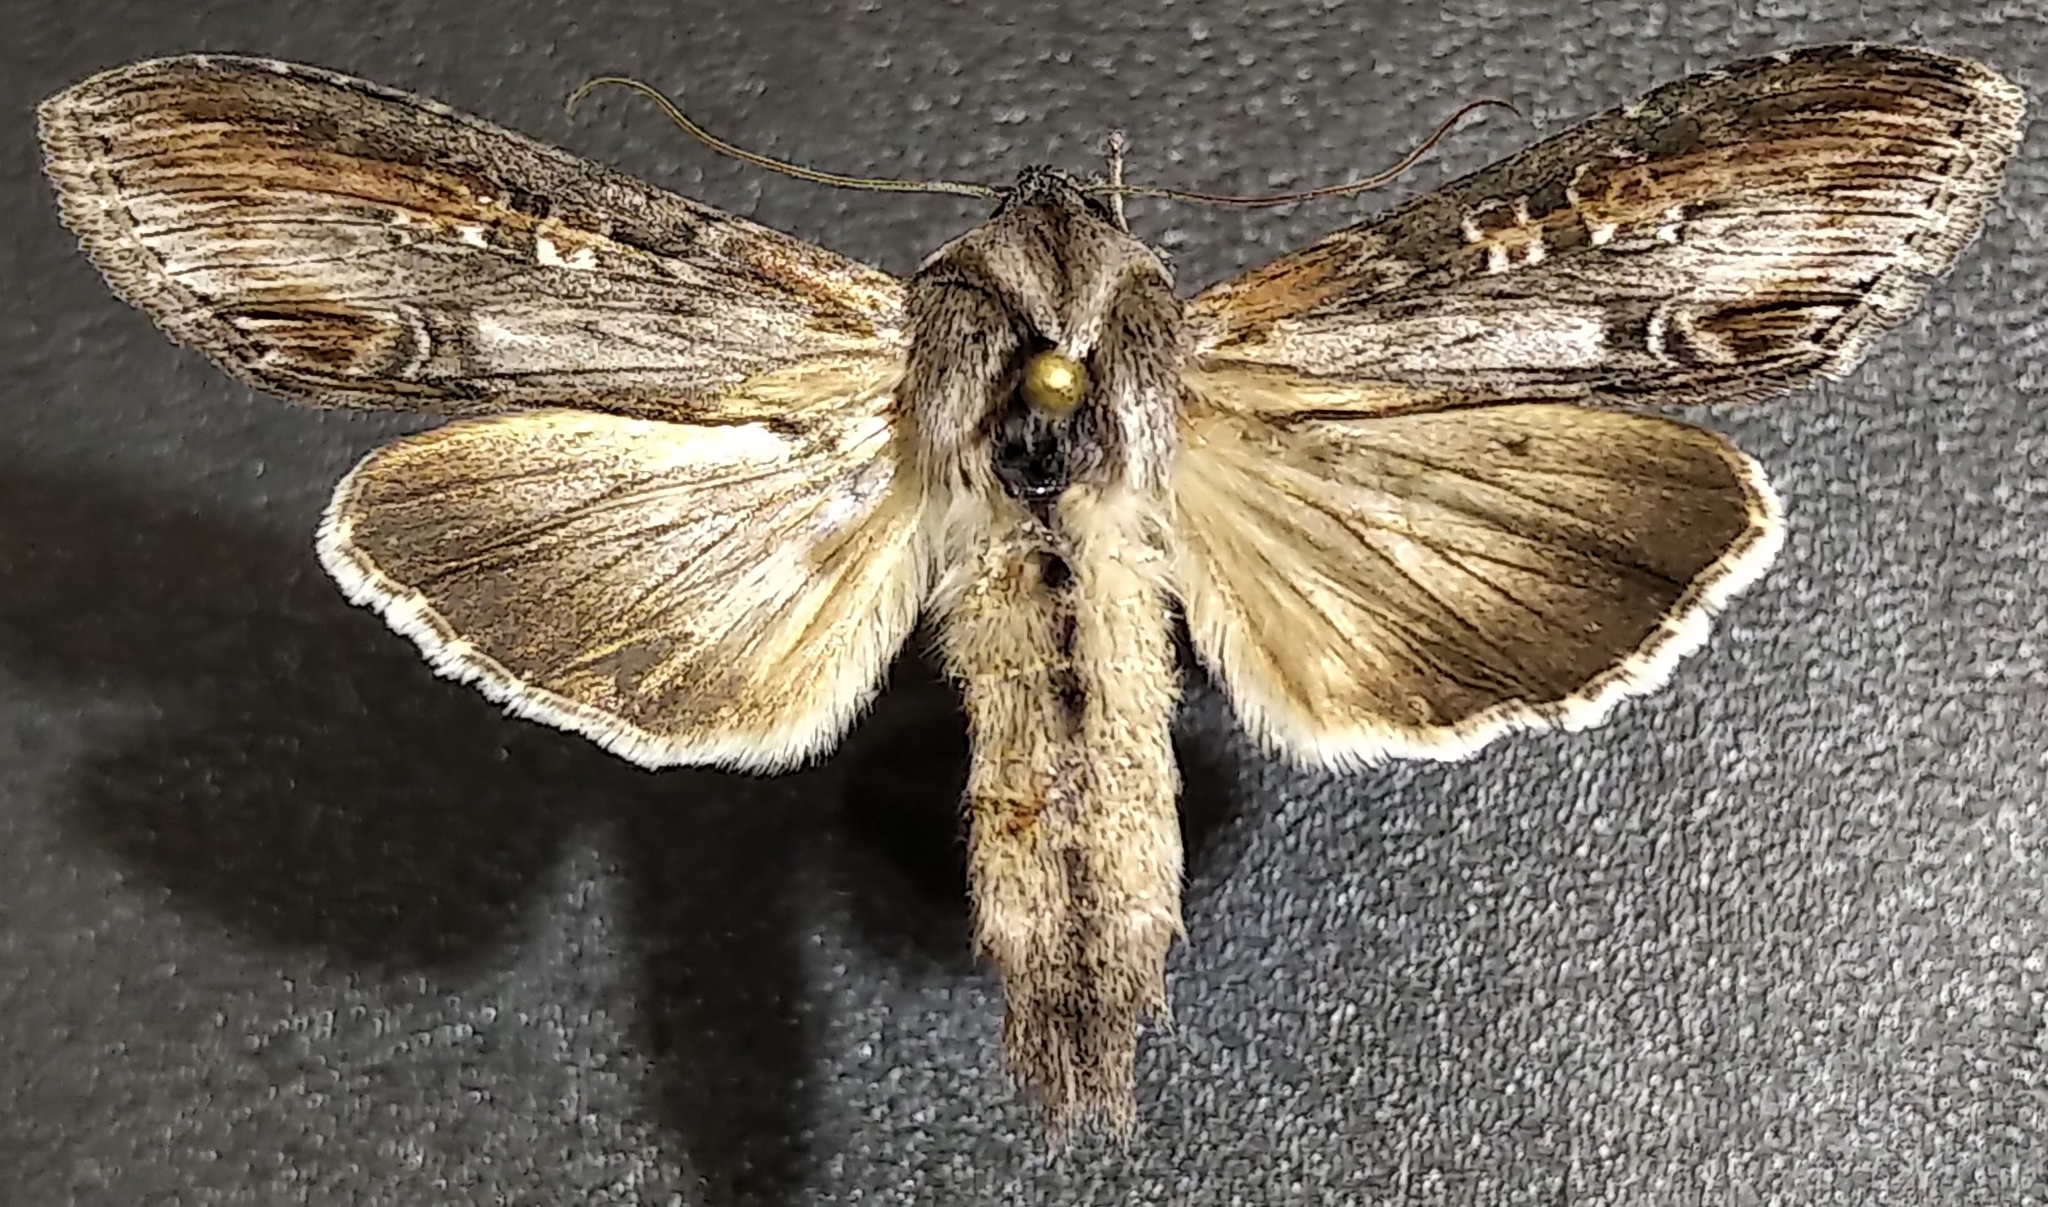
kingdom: Animalia
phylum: Arthropoda
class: Insecta
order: Lepidoptera
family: Noctuidae
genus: Cucullia
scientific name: Cucullia montanae
